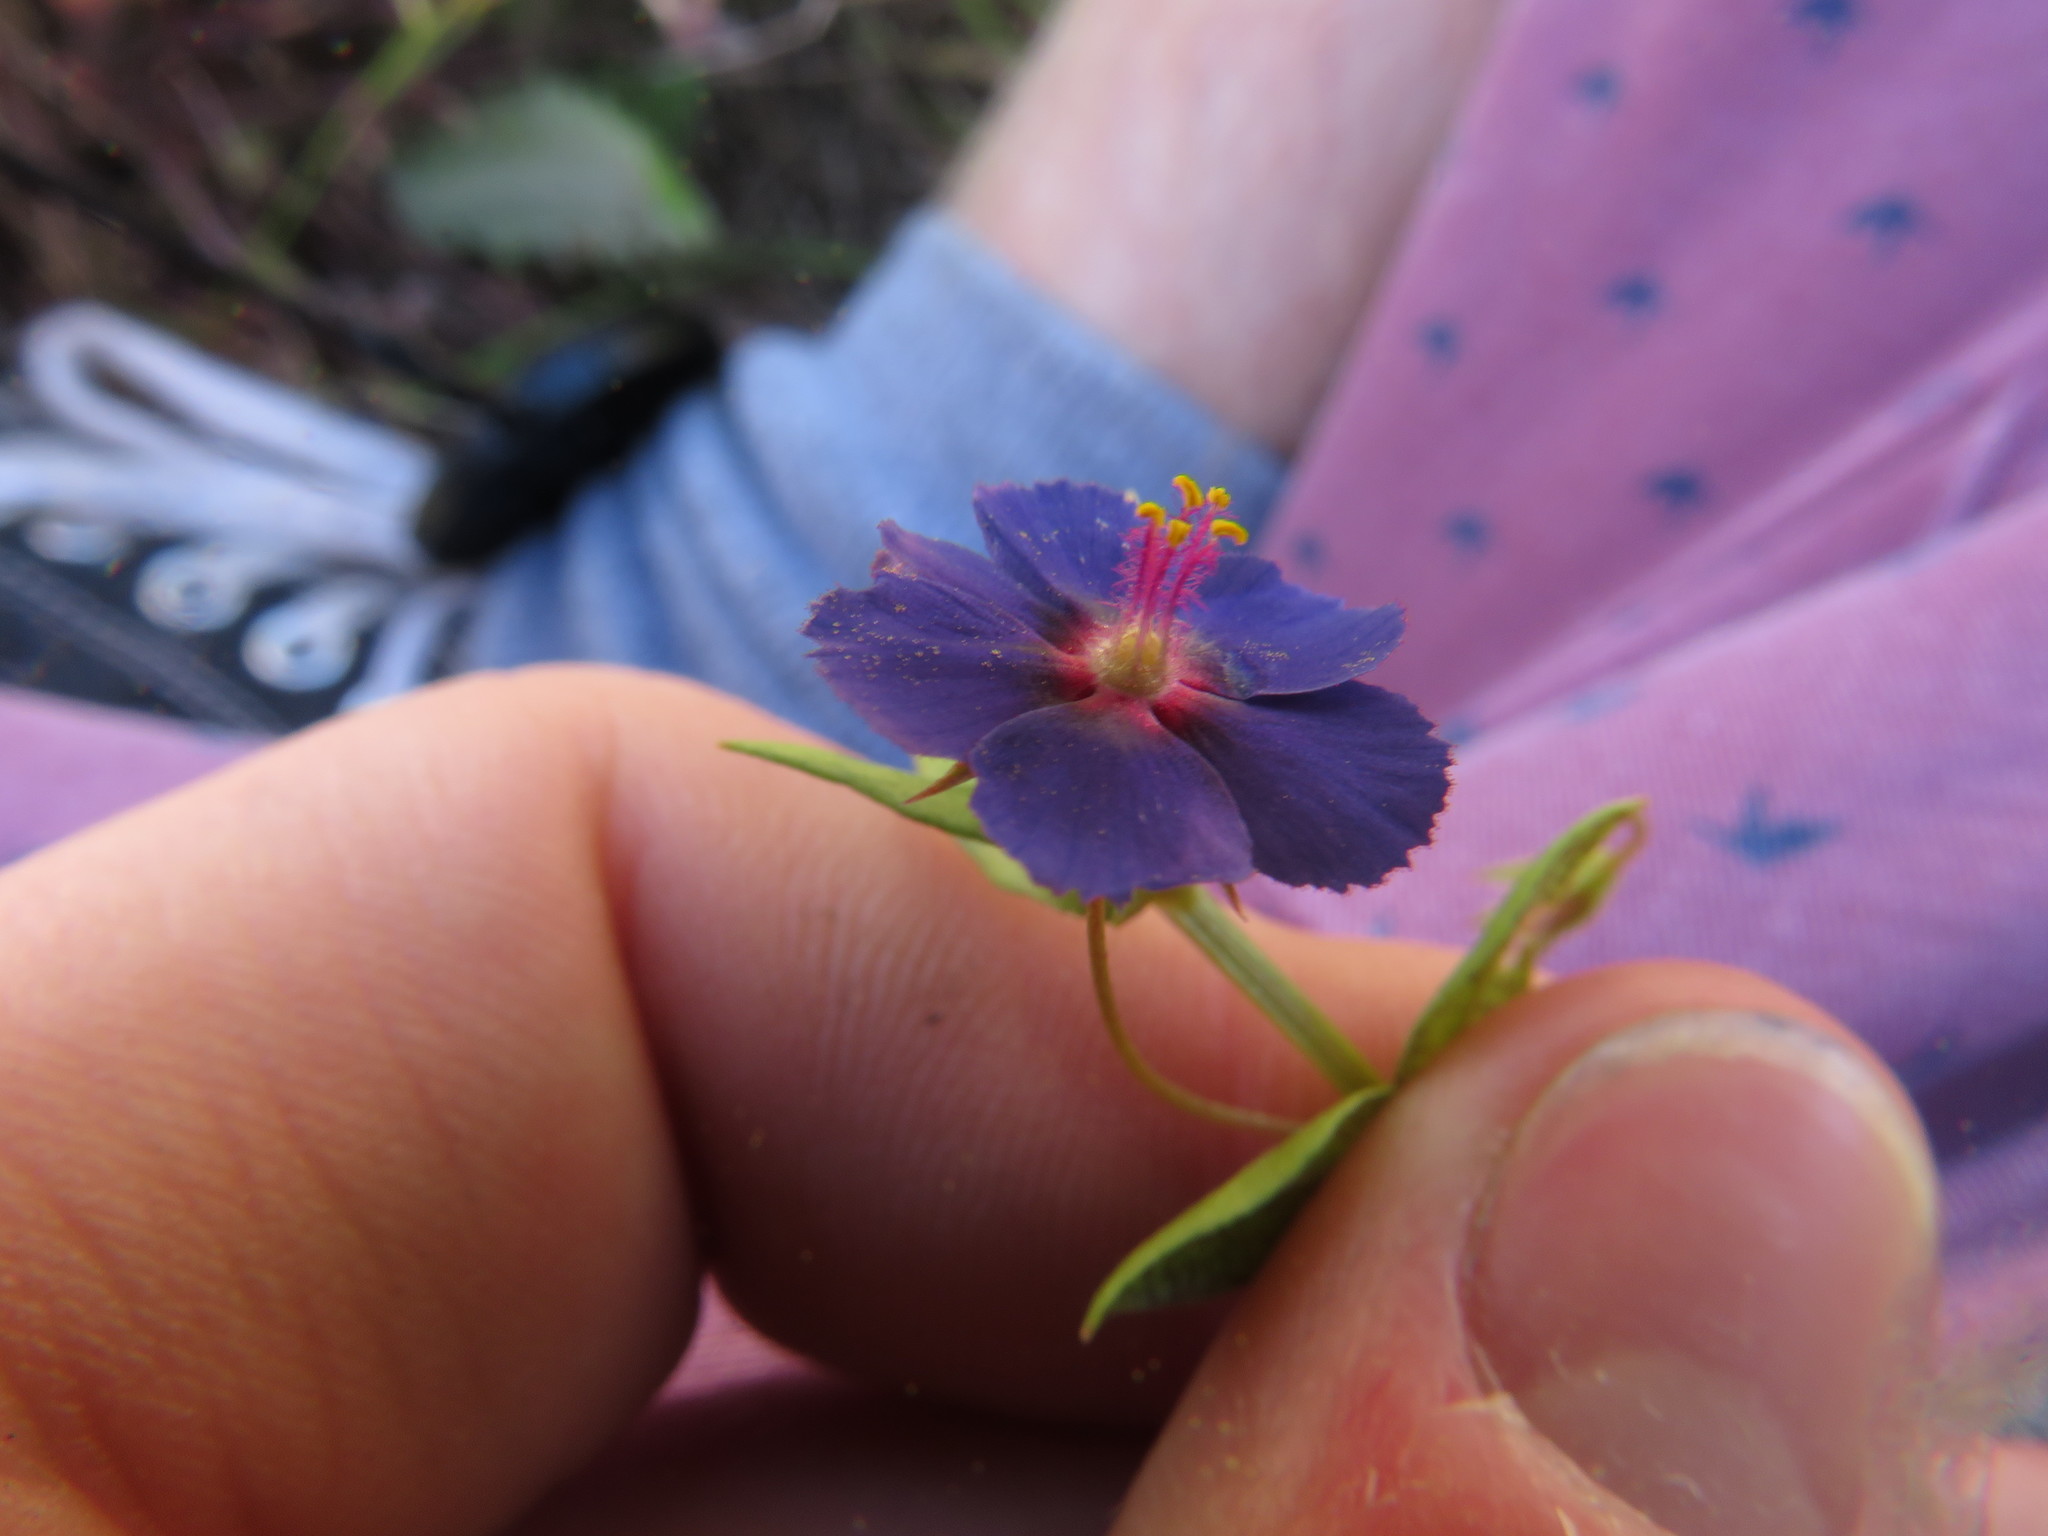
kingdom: Plantae
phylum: Tracheophyta
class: Magnoliopsida
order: Ericales
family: Primulaceae
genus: Lysimachia
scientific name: Lysimachia loeflingii
